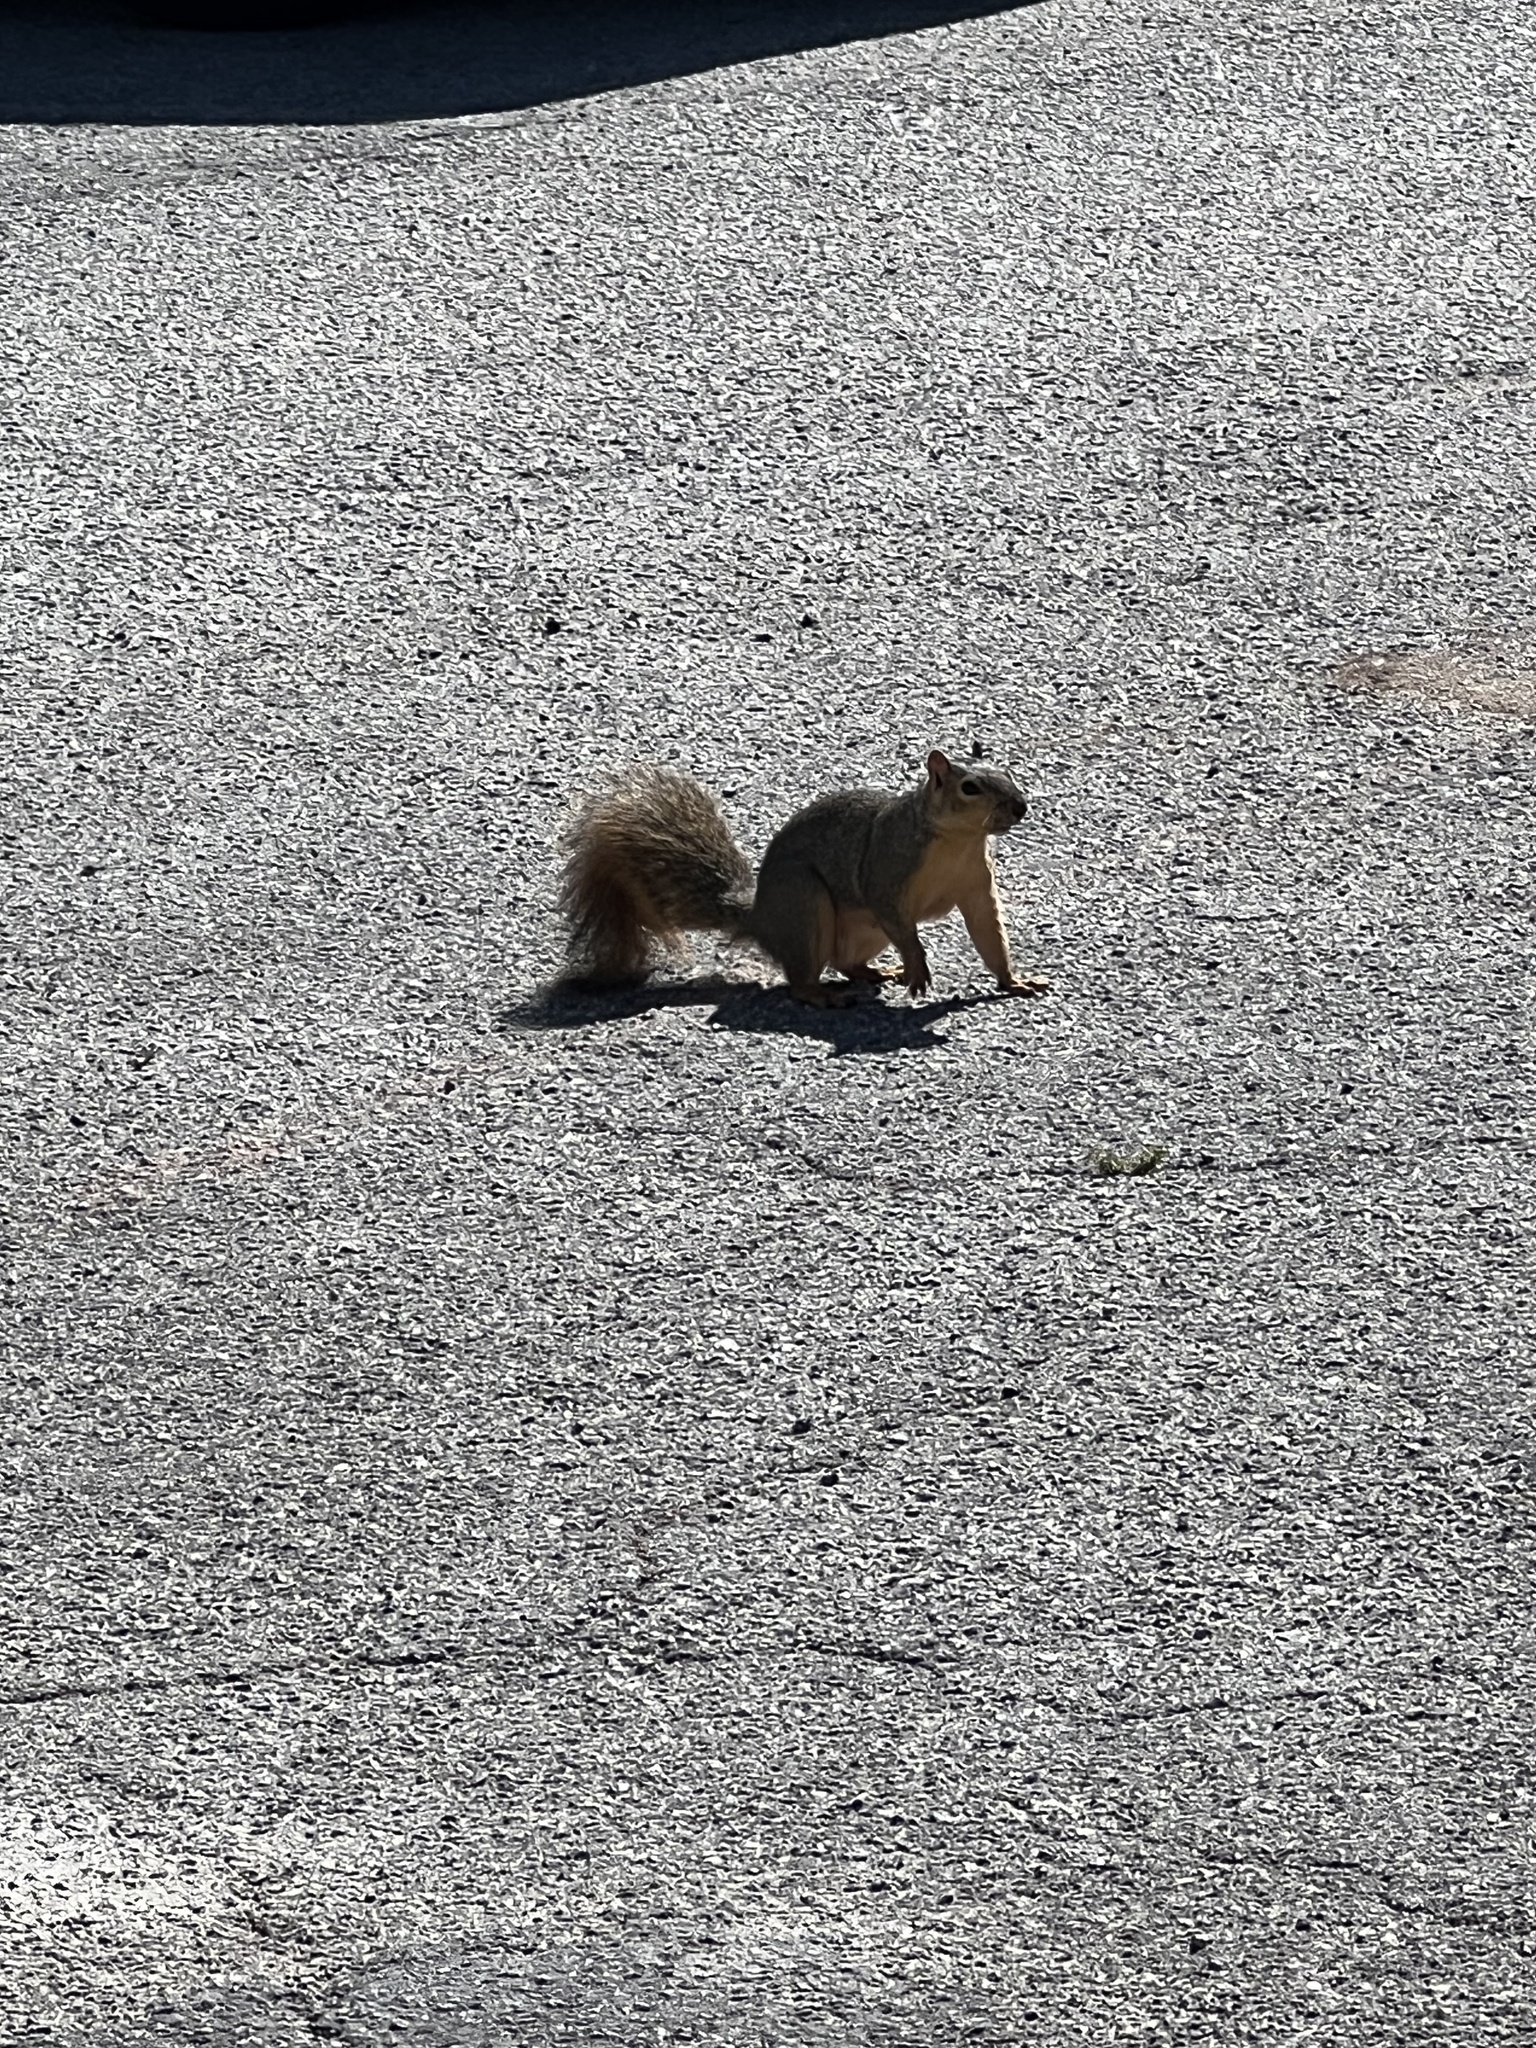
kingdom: Animalia
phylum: Chordata
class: Mammalia
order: Rodentia
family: Sciuridae
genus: Sciurus
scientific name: Sciurus niger
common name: Fox squirrel
